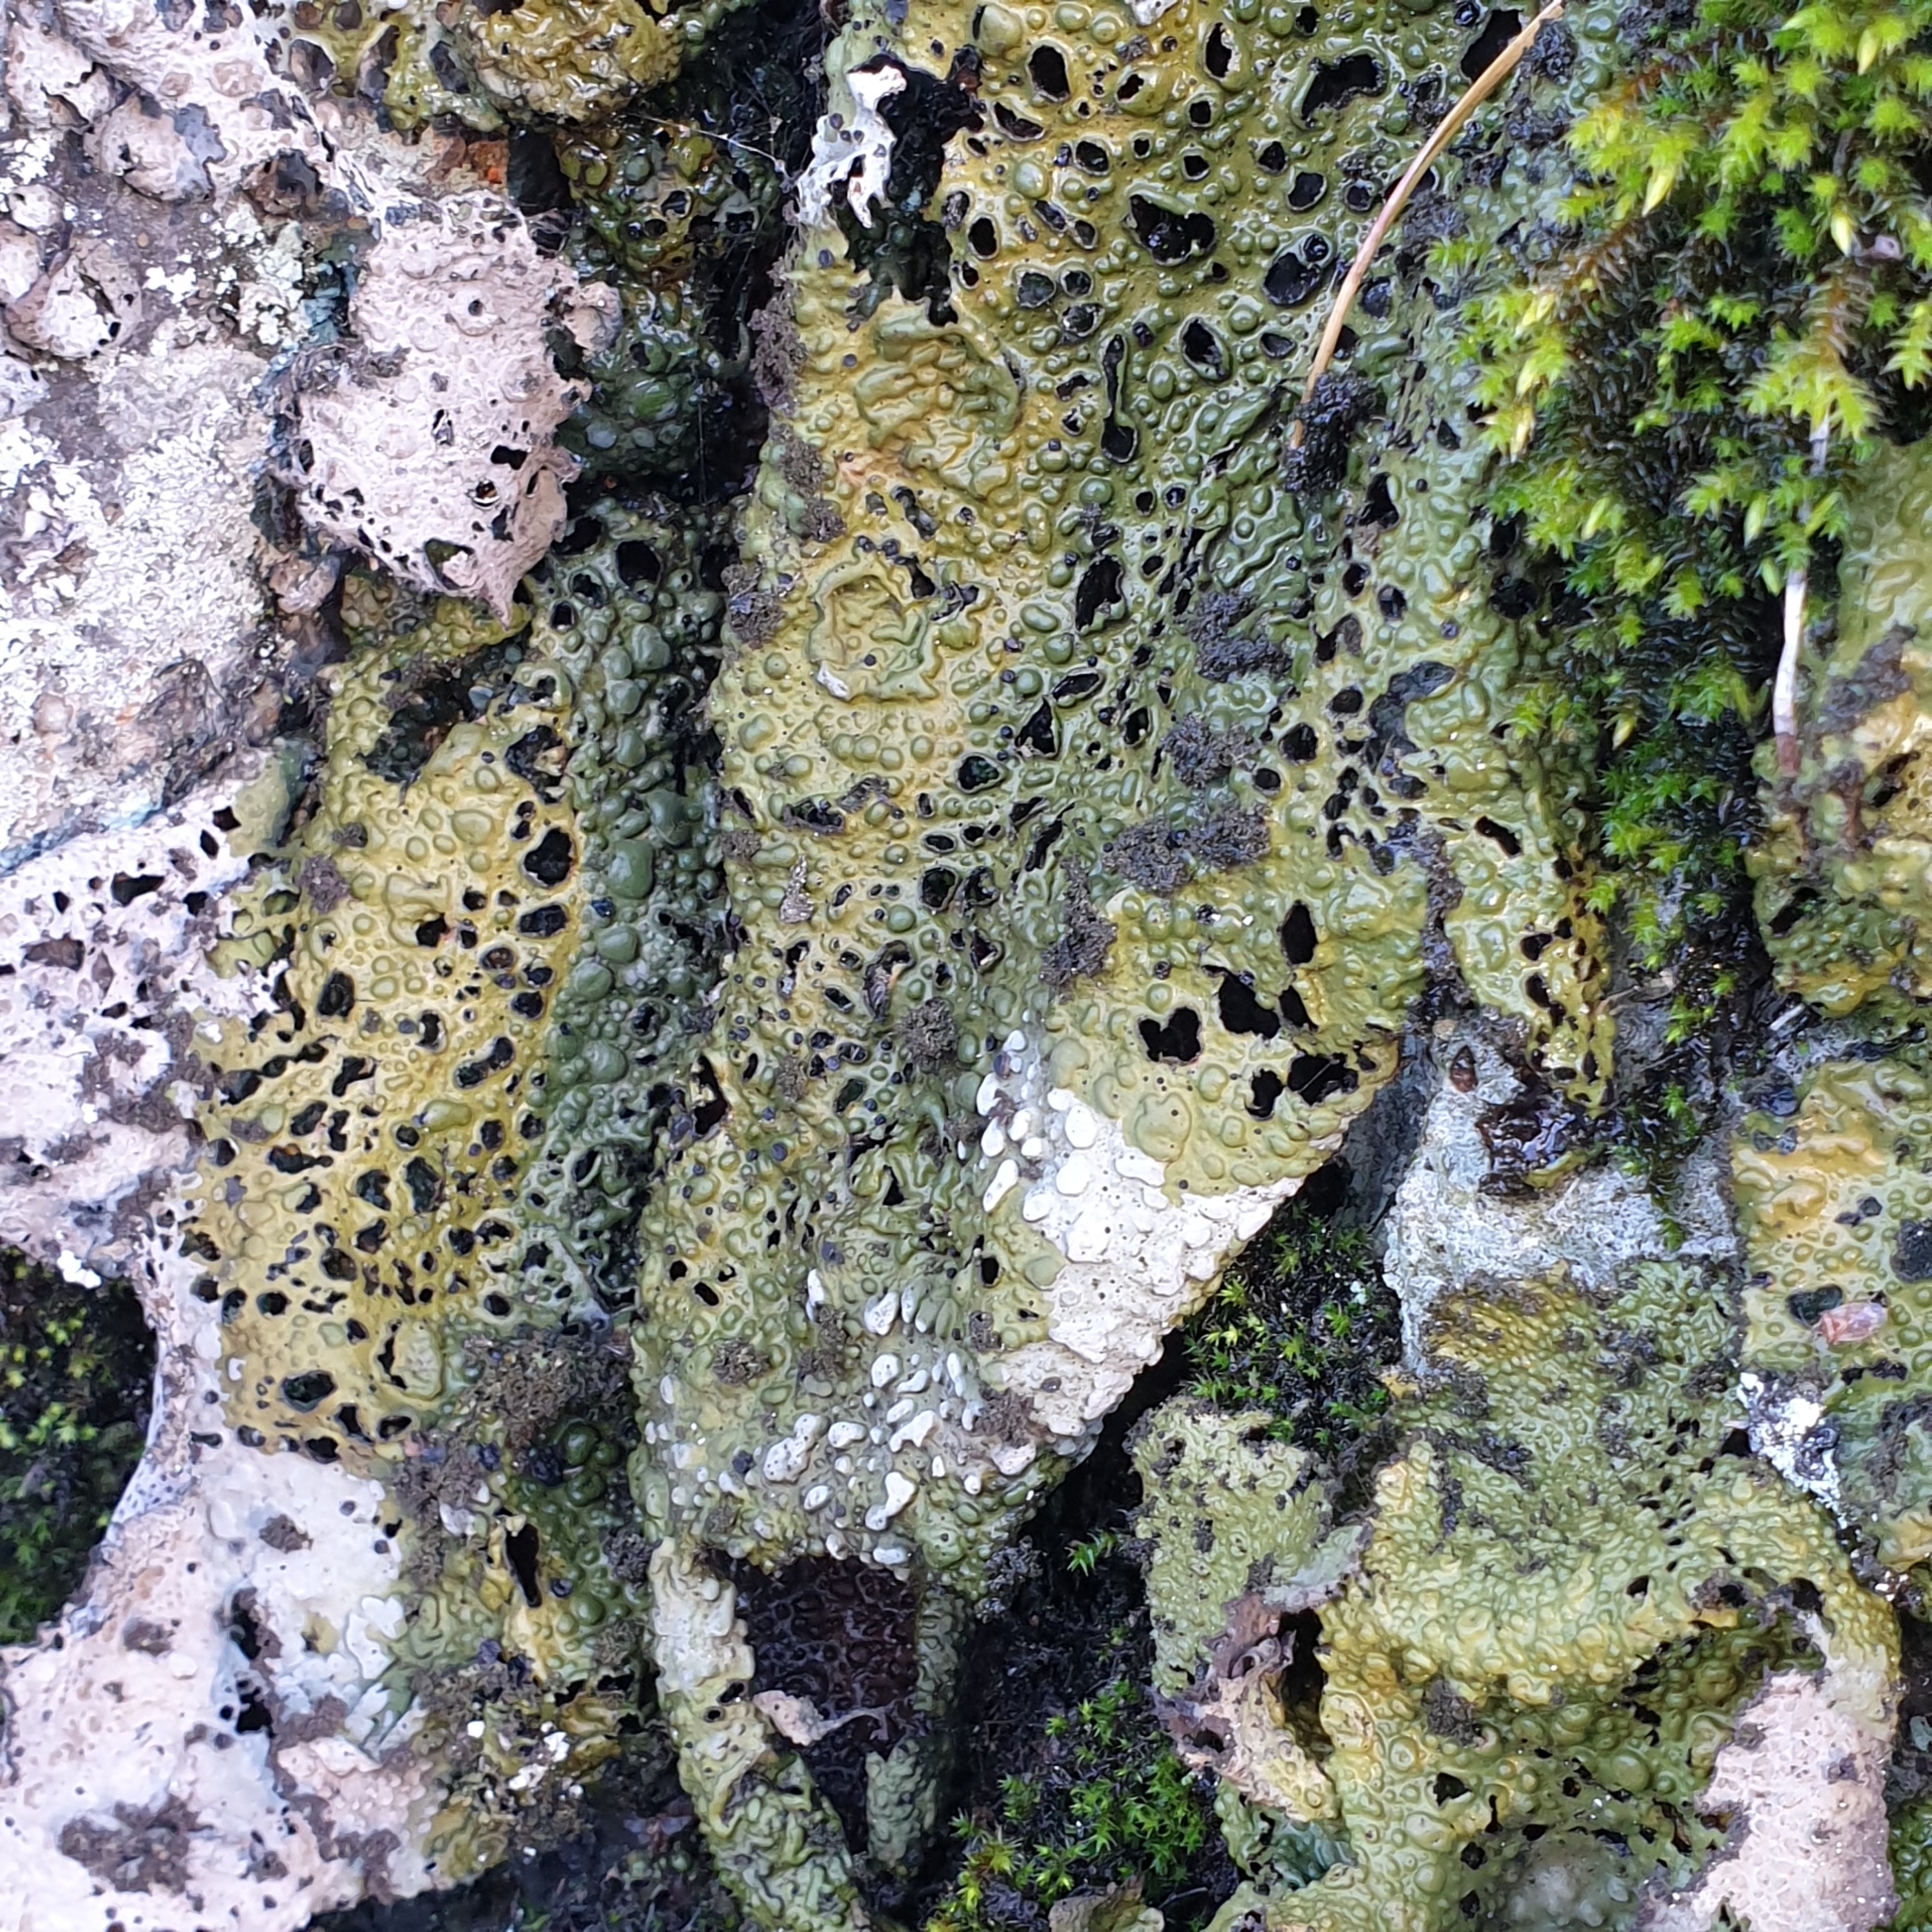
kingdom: Fungi
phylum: Ascomycota
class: Lecanoromycetes
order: Umbilicariales
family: Umbilicariaceae
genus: Lasallia
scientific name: Lasallia pustulata
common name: Blistered toadskin lichen
